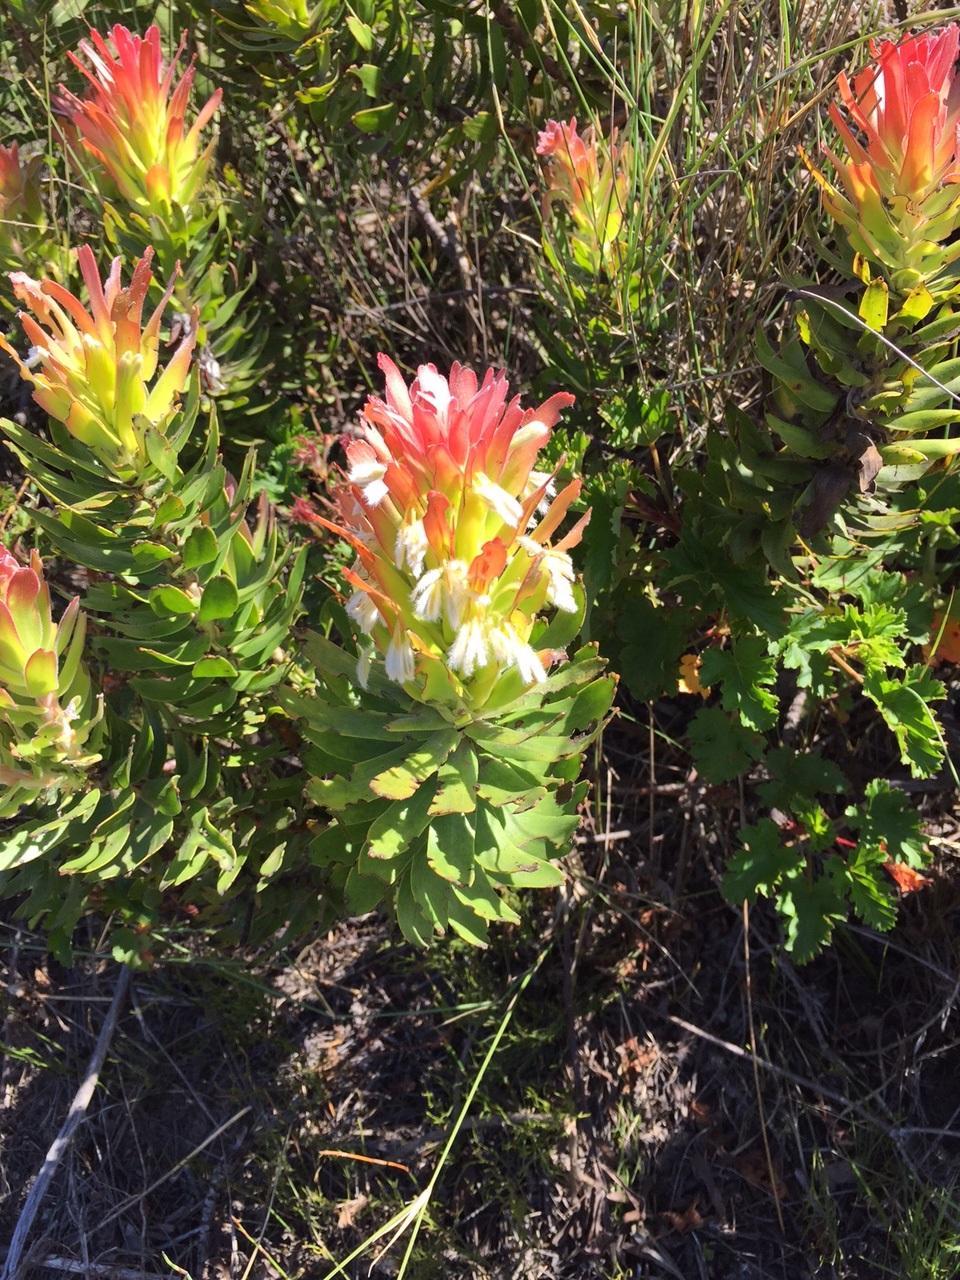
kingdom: Plantae
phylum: Tracheophyta
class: Magnoliopsida
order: Proteales
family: Proteaceae
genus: Mimetes
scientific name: Mimetes cucullatus
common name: Common pagoda
